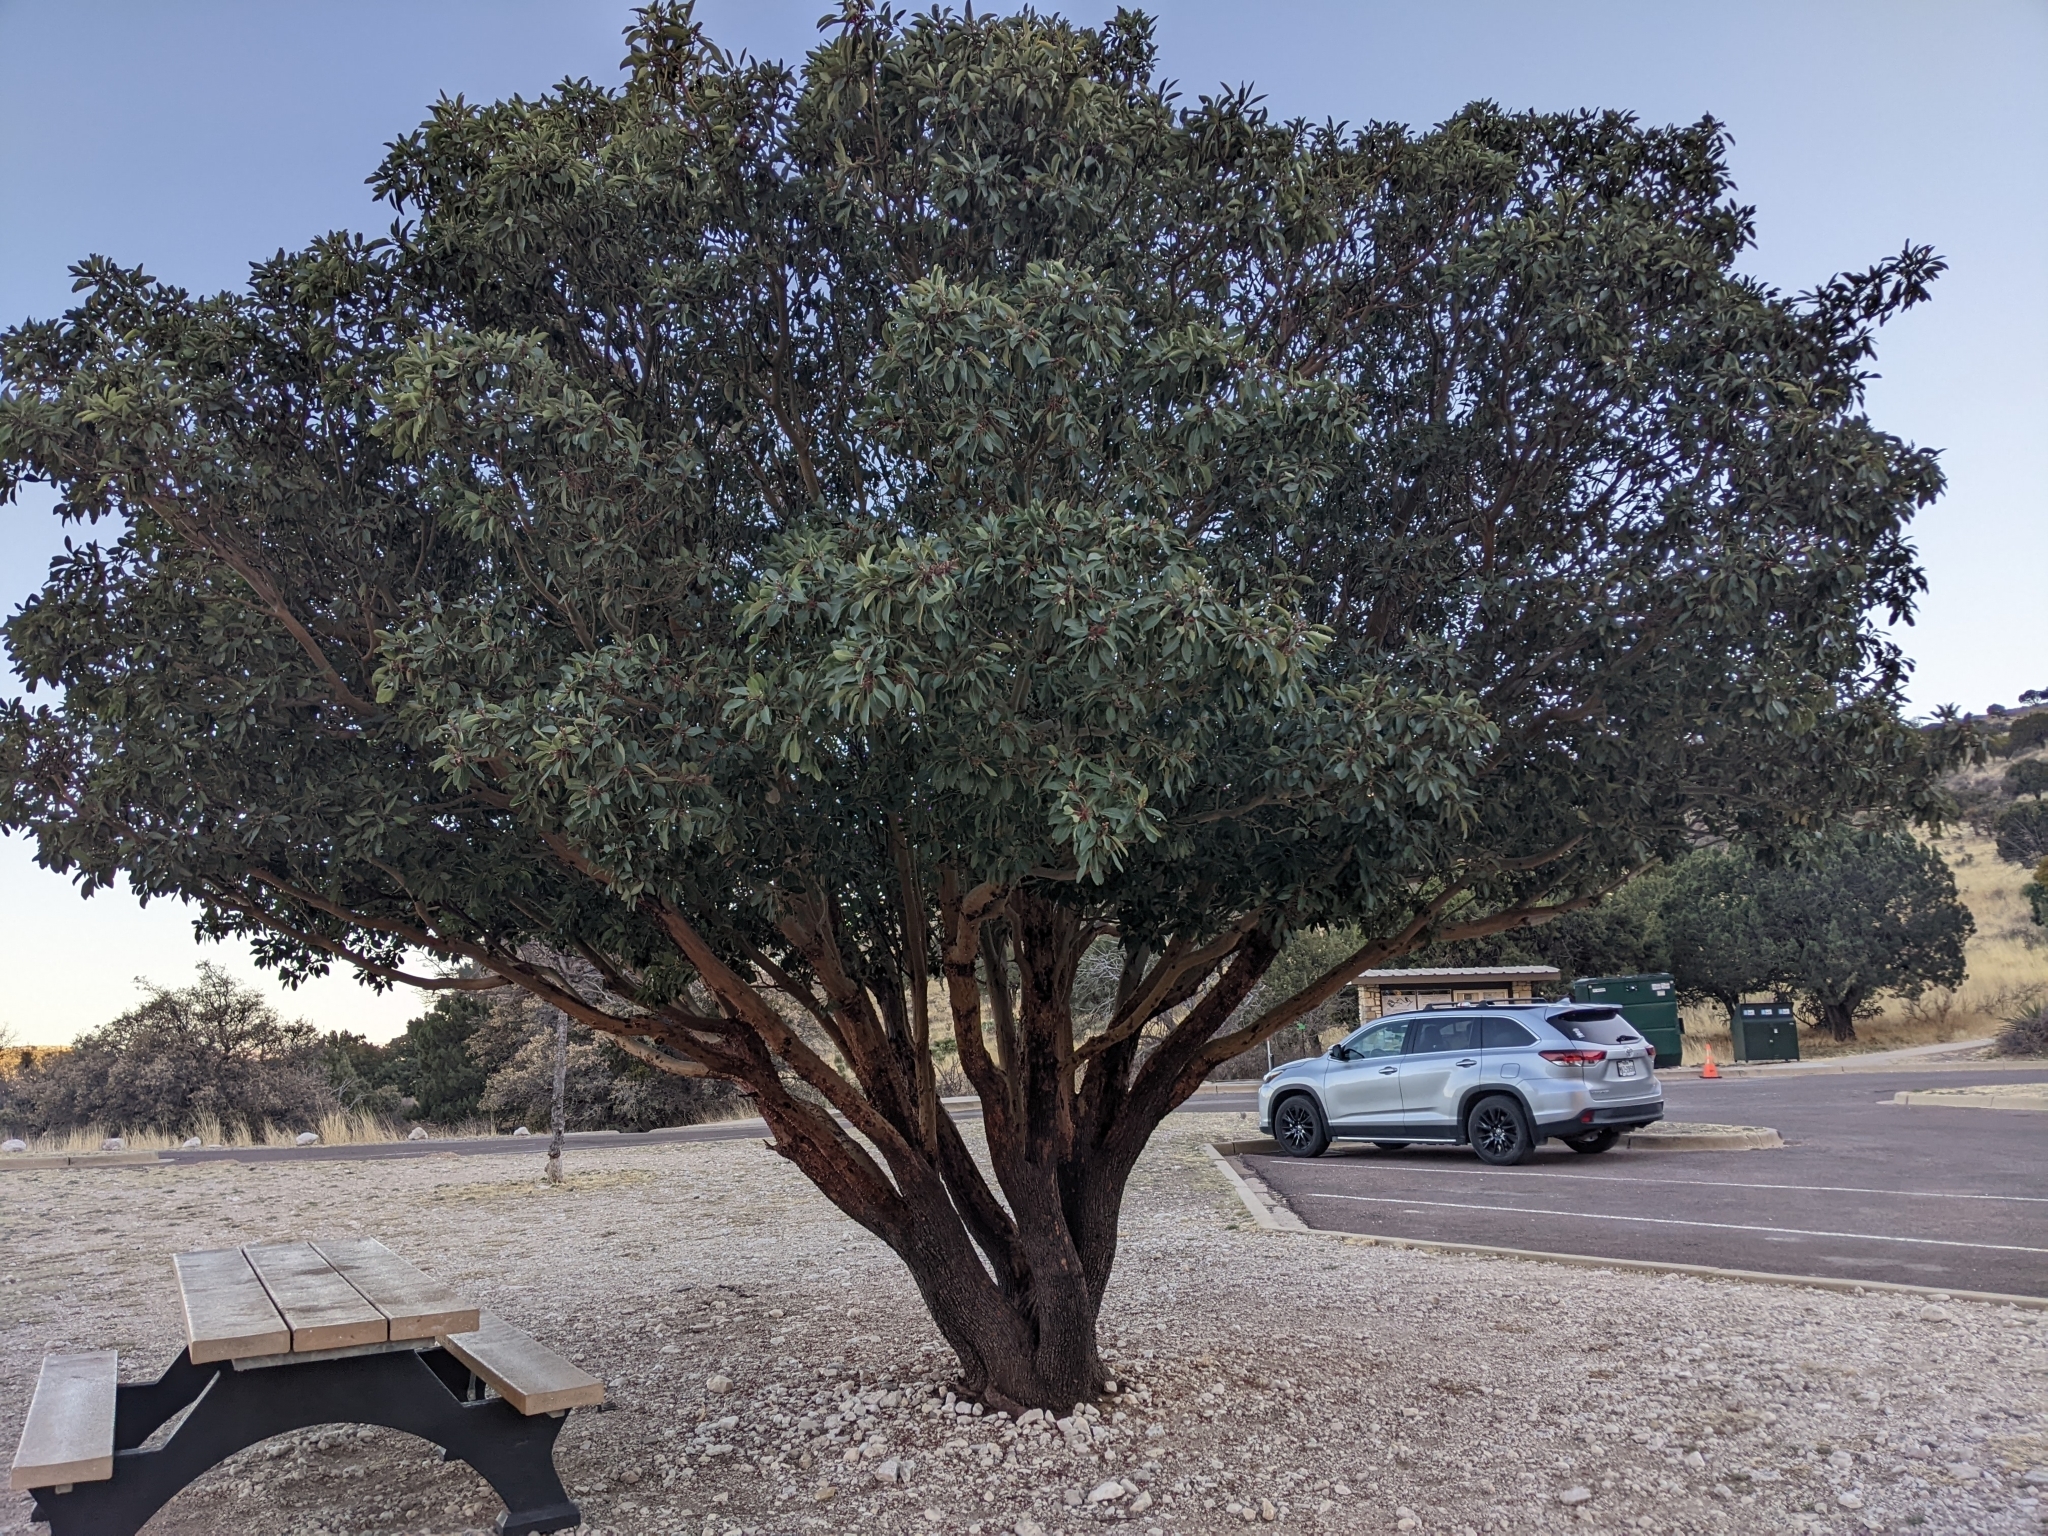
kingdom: Plantae
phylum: Tracheophyta
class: Magnoliopsida
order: Ericales
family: Ericaceae
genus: Arbutus
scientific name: Arbutus xalapensis
